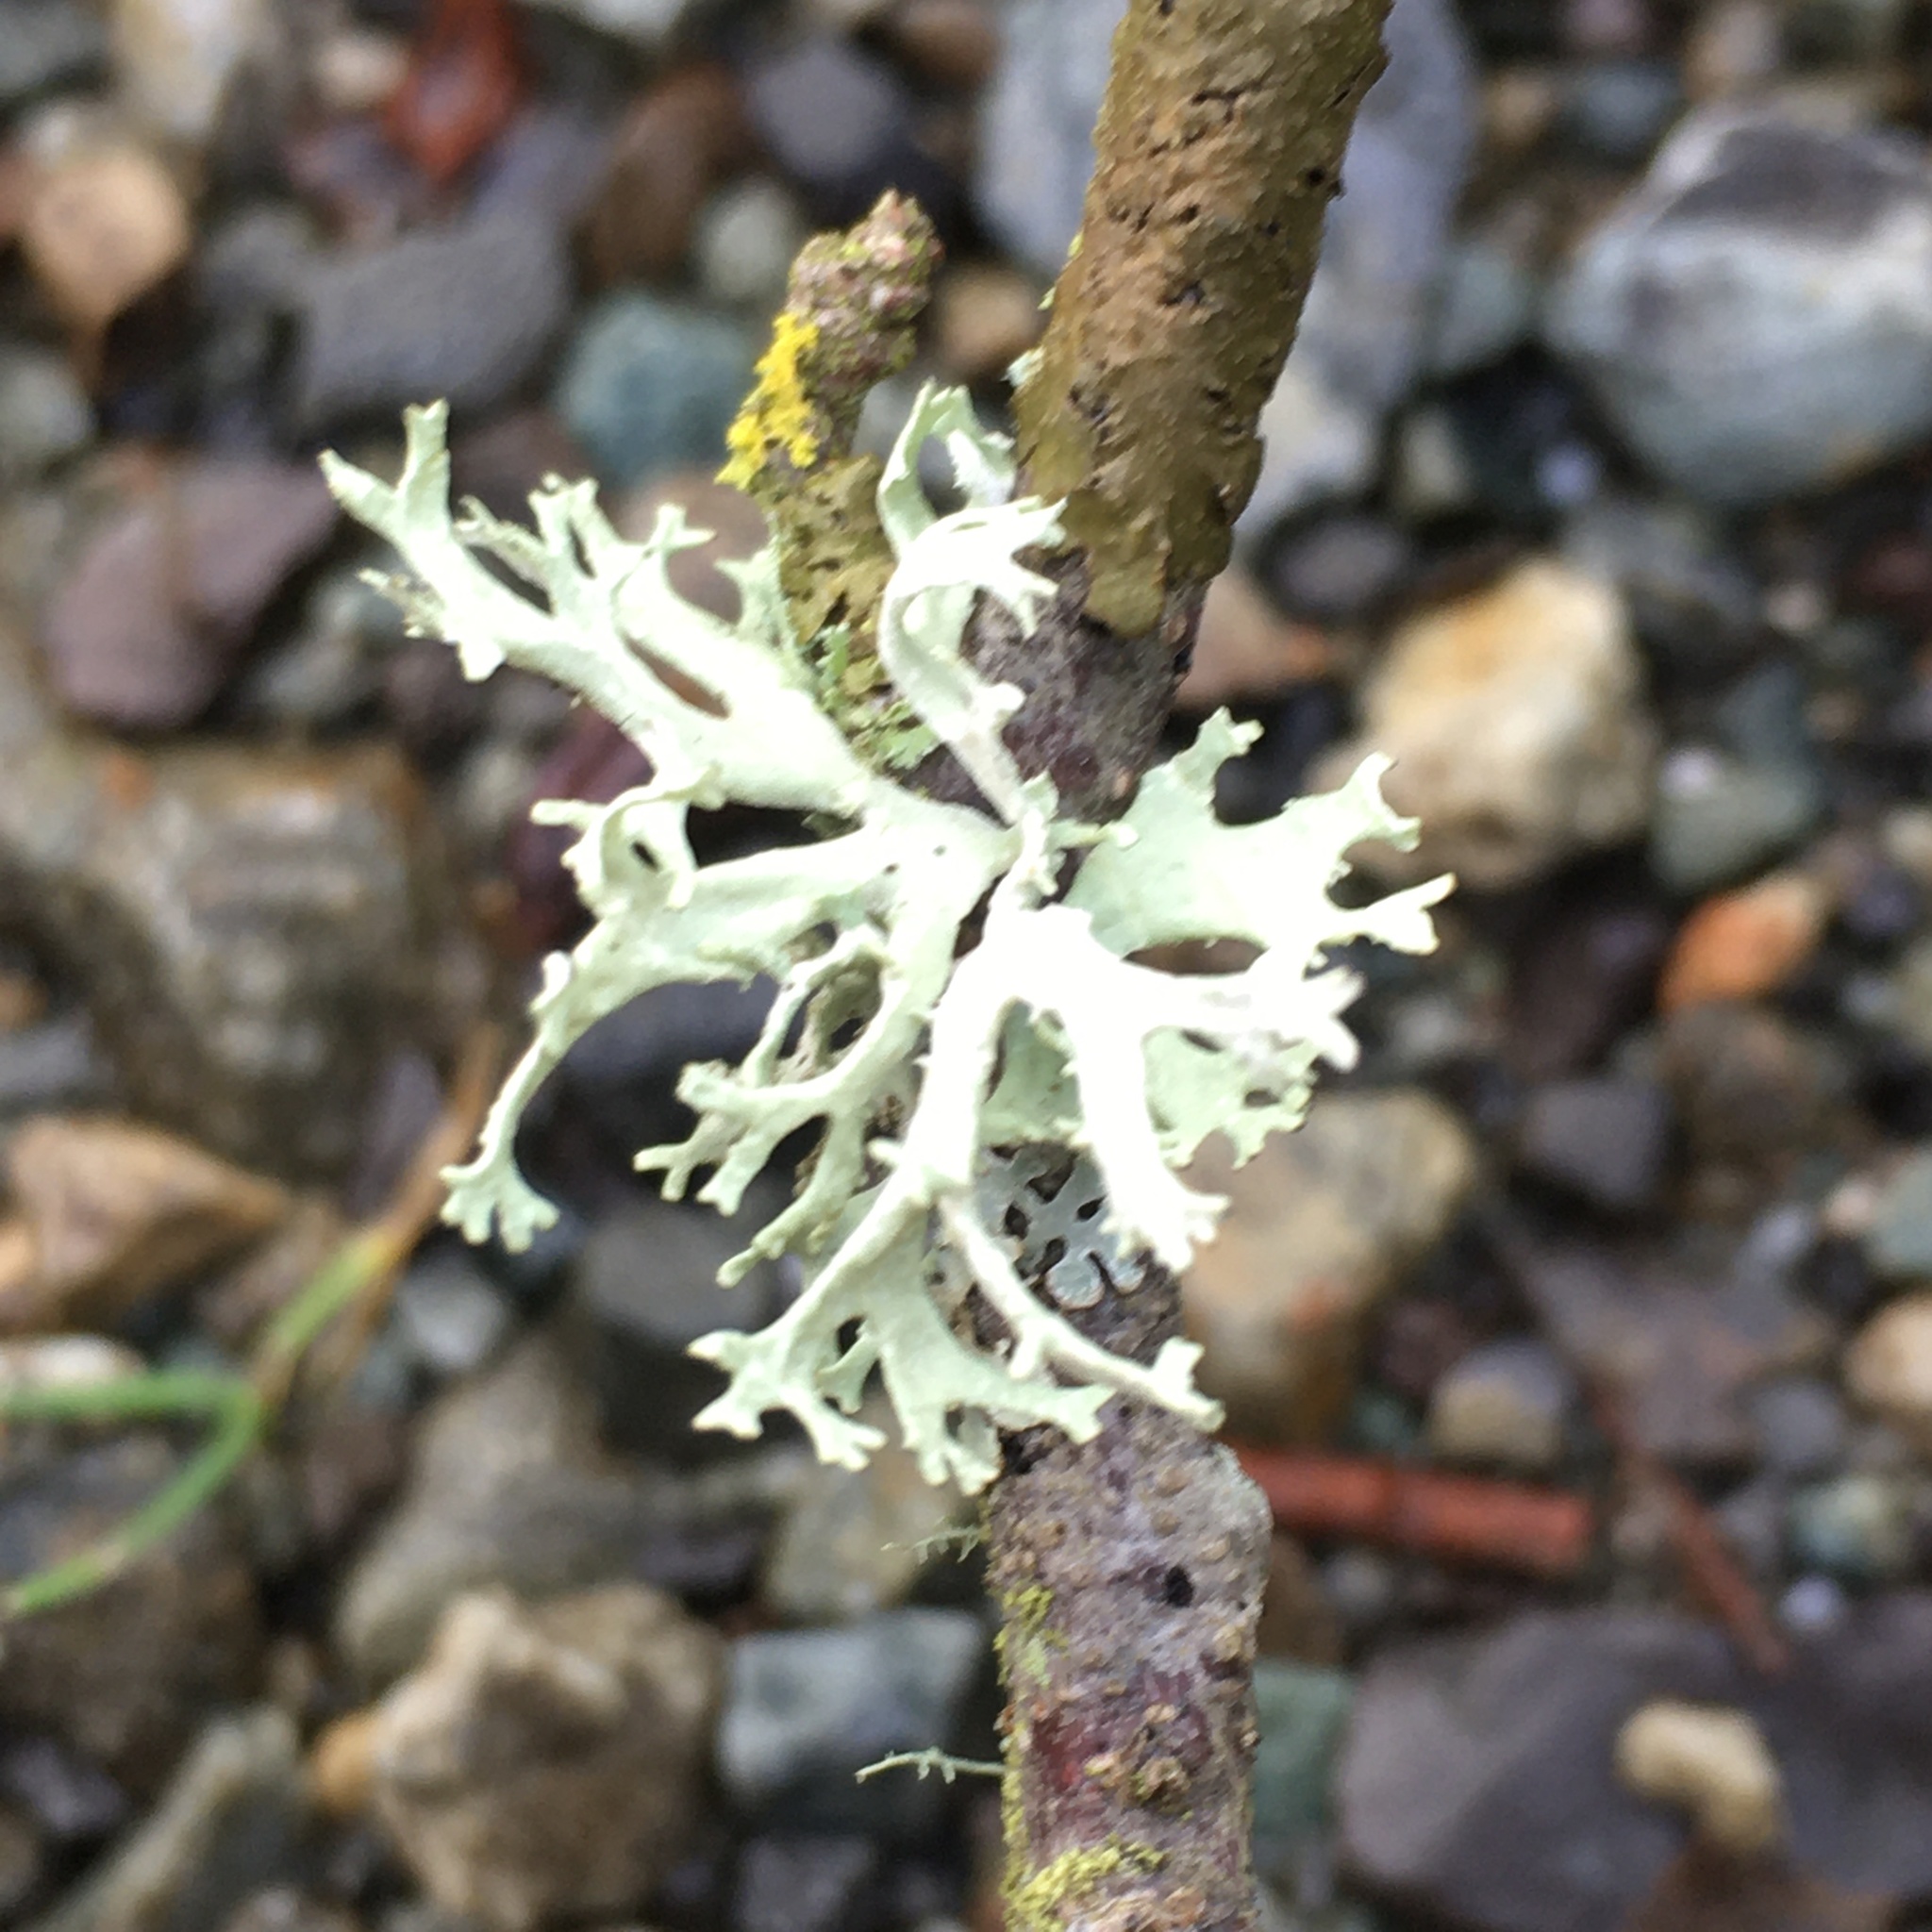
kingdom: Fungi
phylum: Ascomycota
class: Lecanoromycetes
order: Lecanorales
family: Parmeliaceae
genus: Evernia
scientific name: Evernia prunastri
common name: Oak moss
